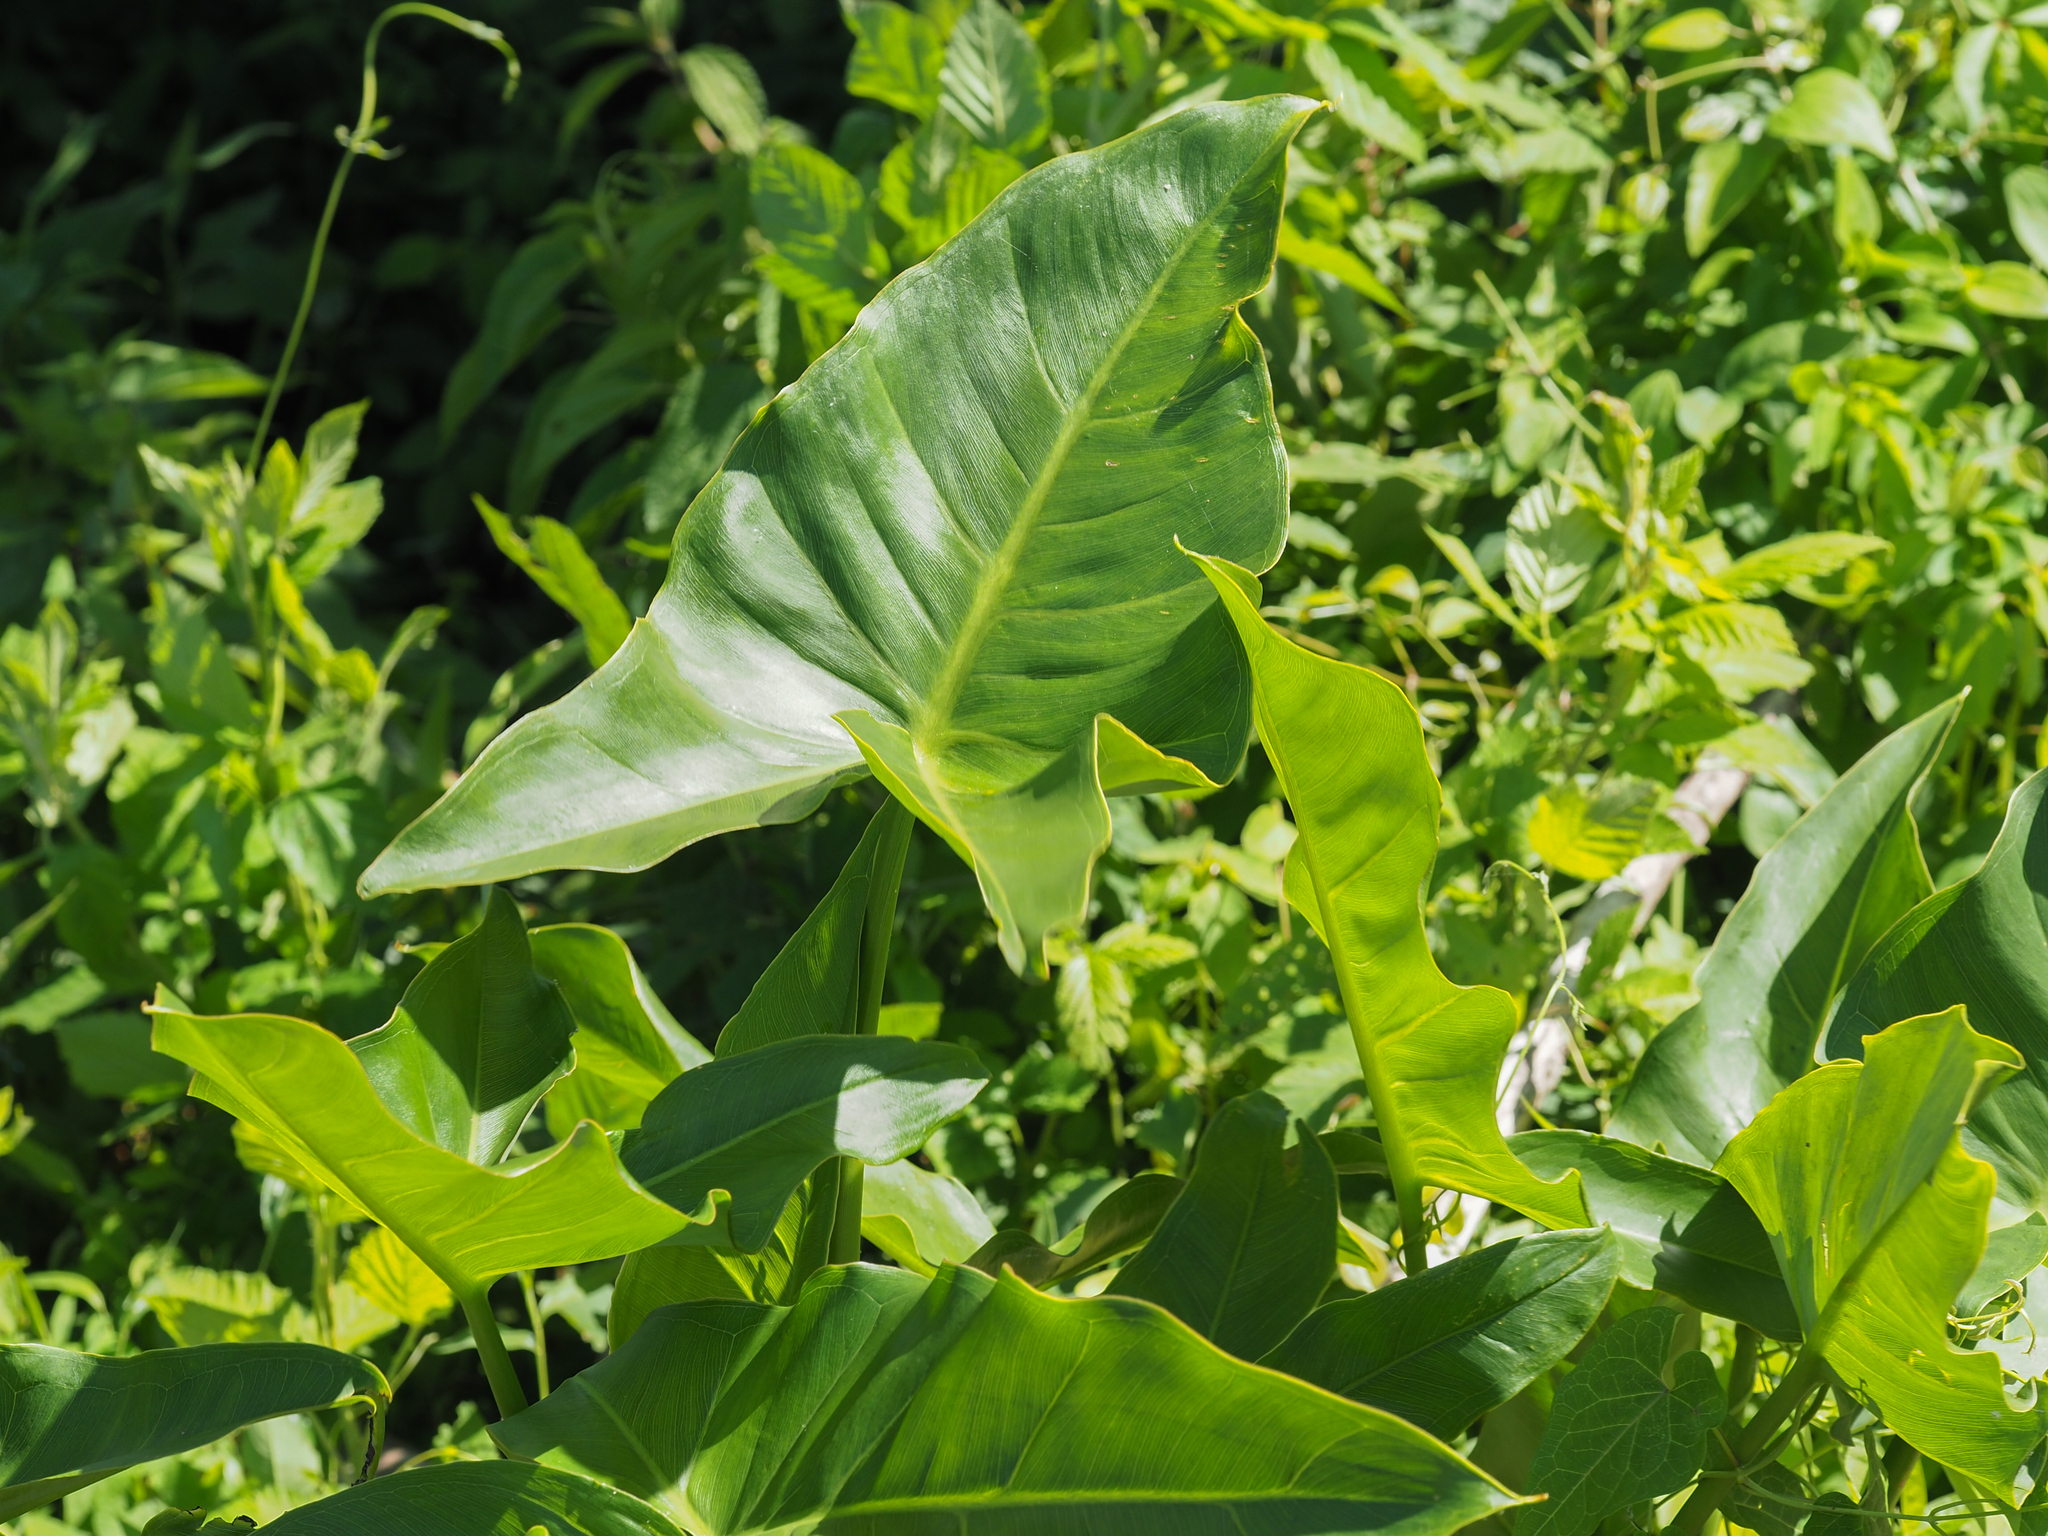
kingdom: Plantae
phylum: Tracheophyta
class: Liliopsida
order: Alismatales
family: Araceae
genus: Peltandra
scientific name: Peltandra virginica
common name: Arrow arum
